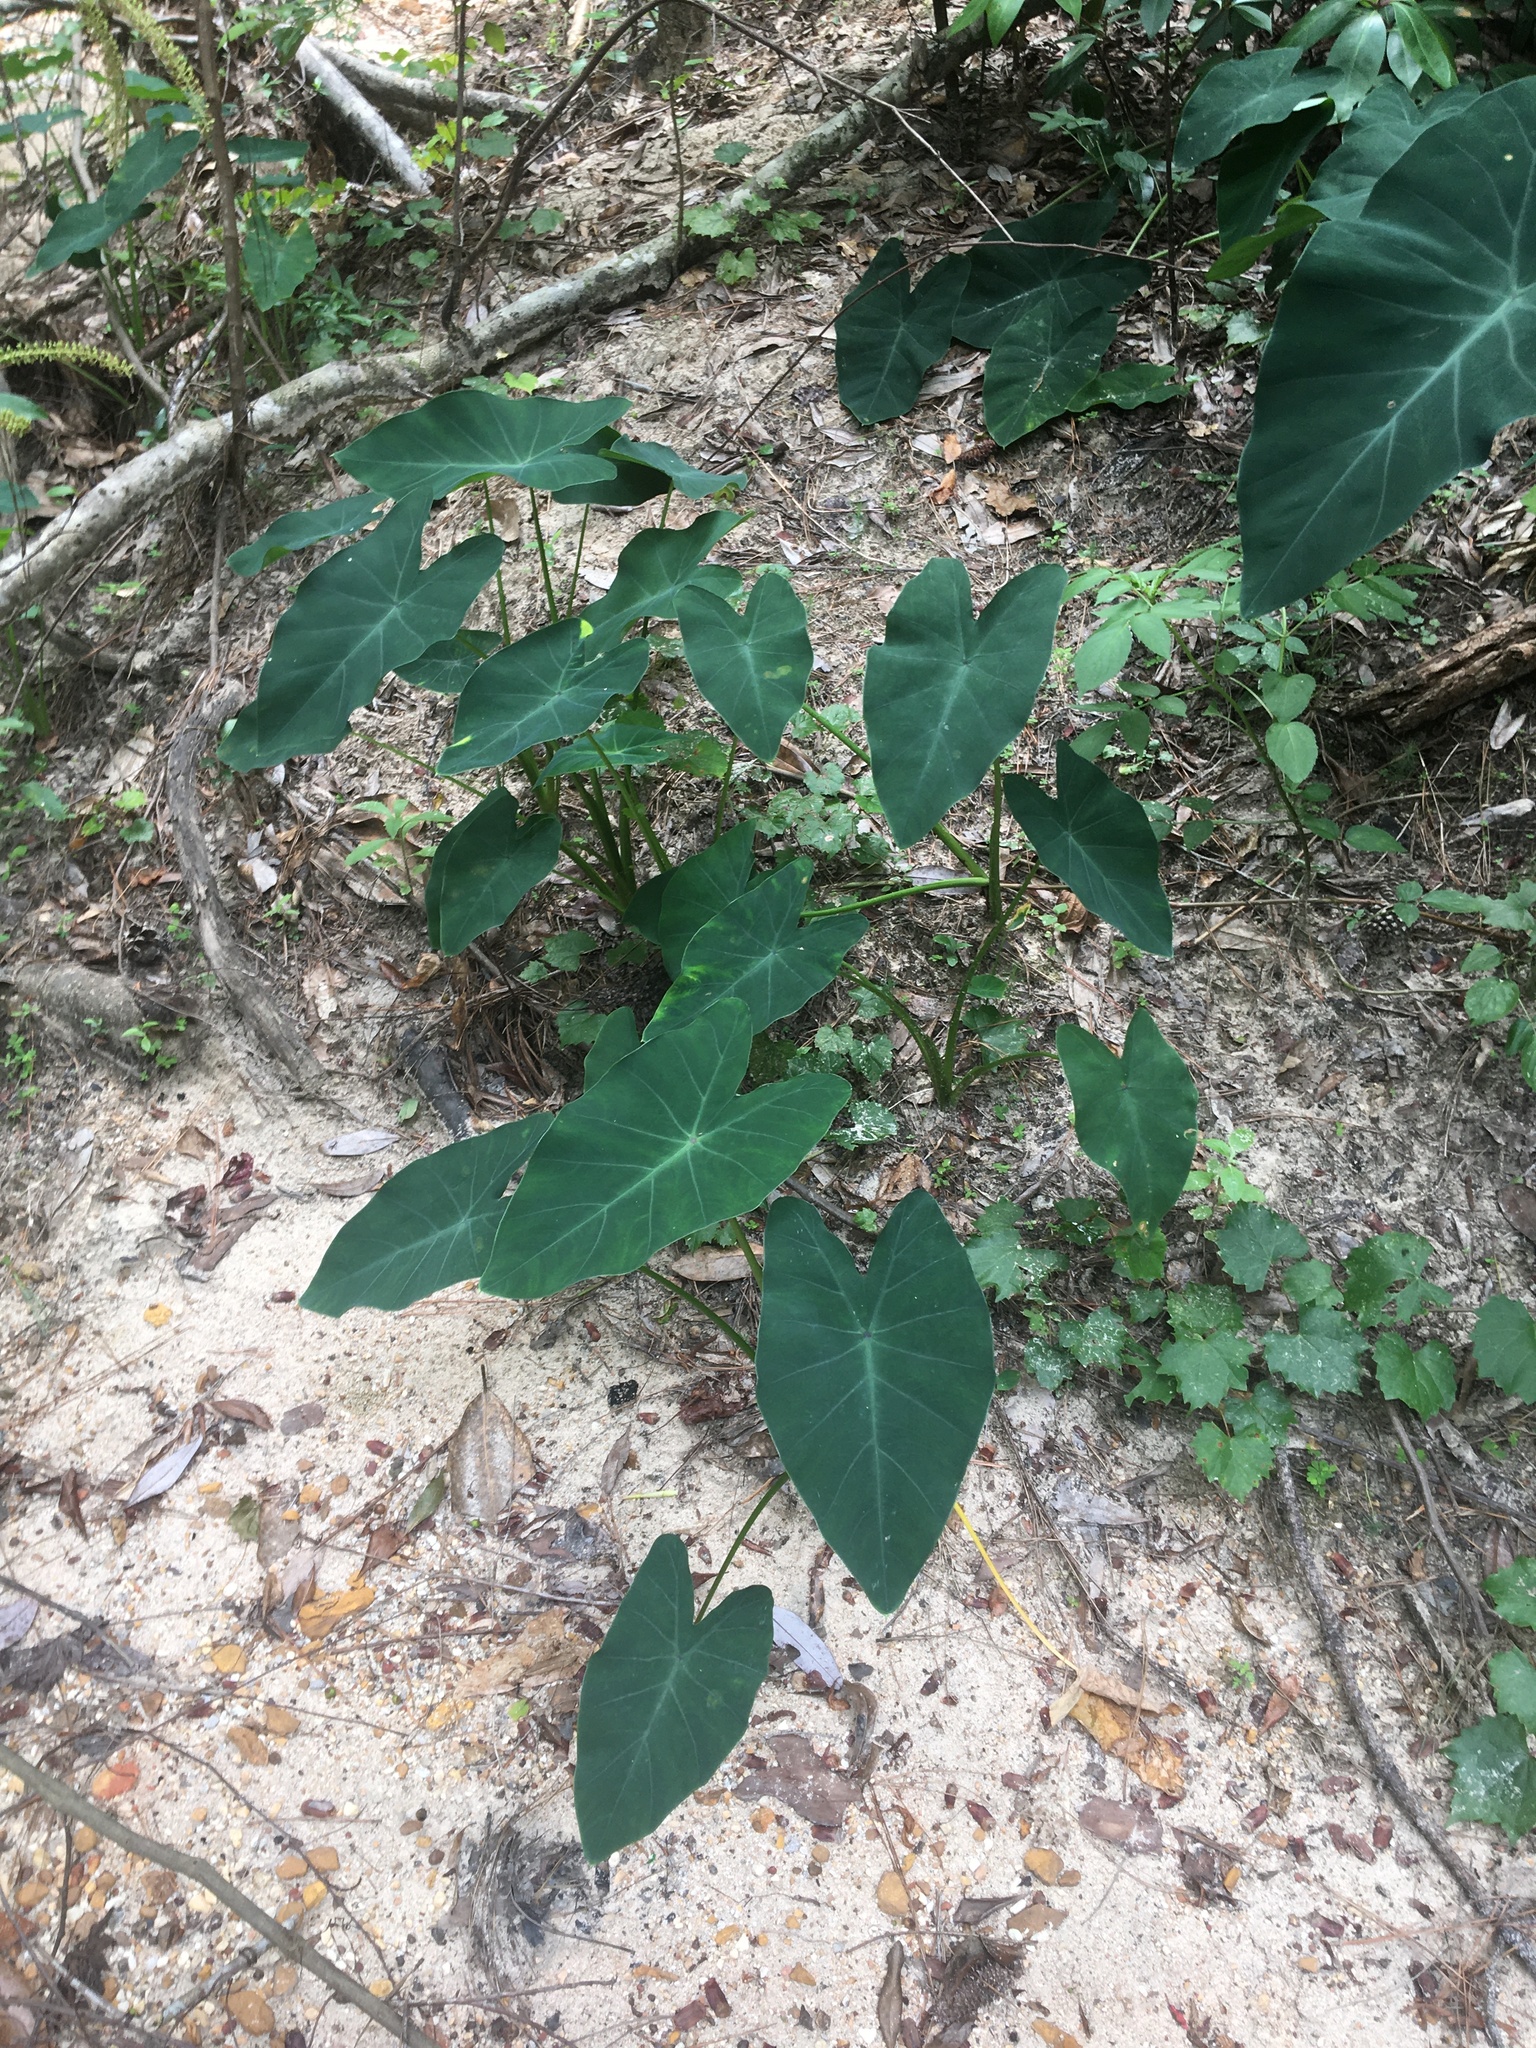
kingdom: Plantae
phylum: Tracheophyta
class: Liliopsida
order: Alismatales
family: Araceae
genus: Colocasia
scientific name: Colocasia esculenta
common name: Taro
